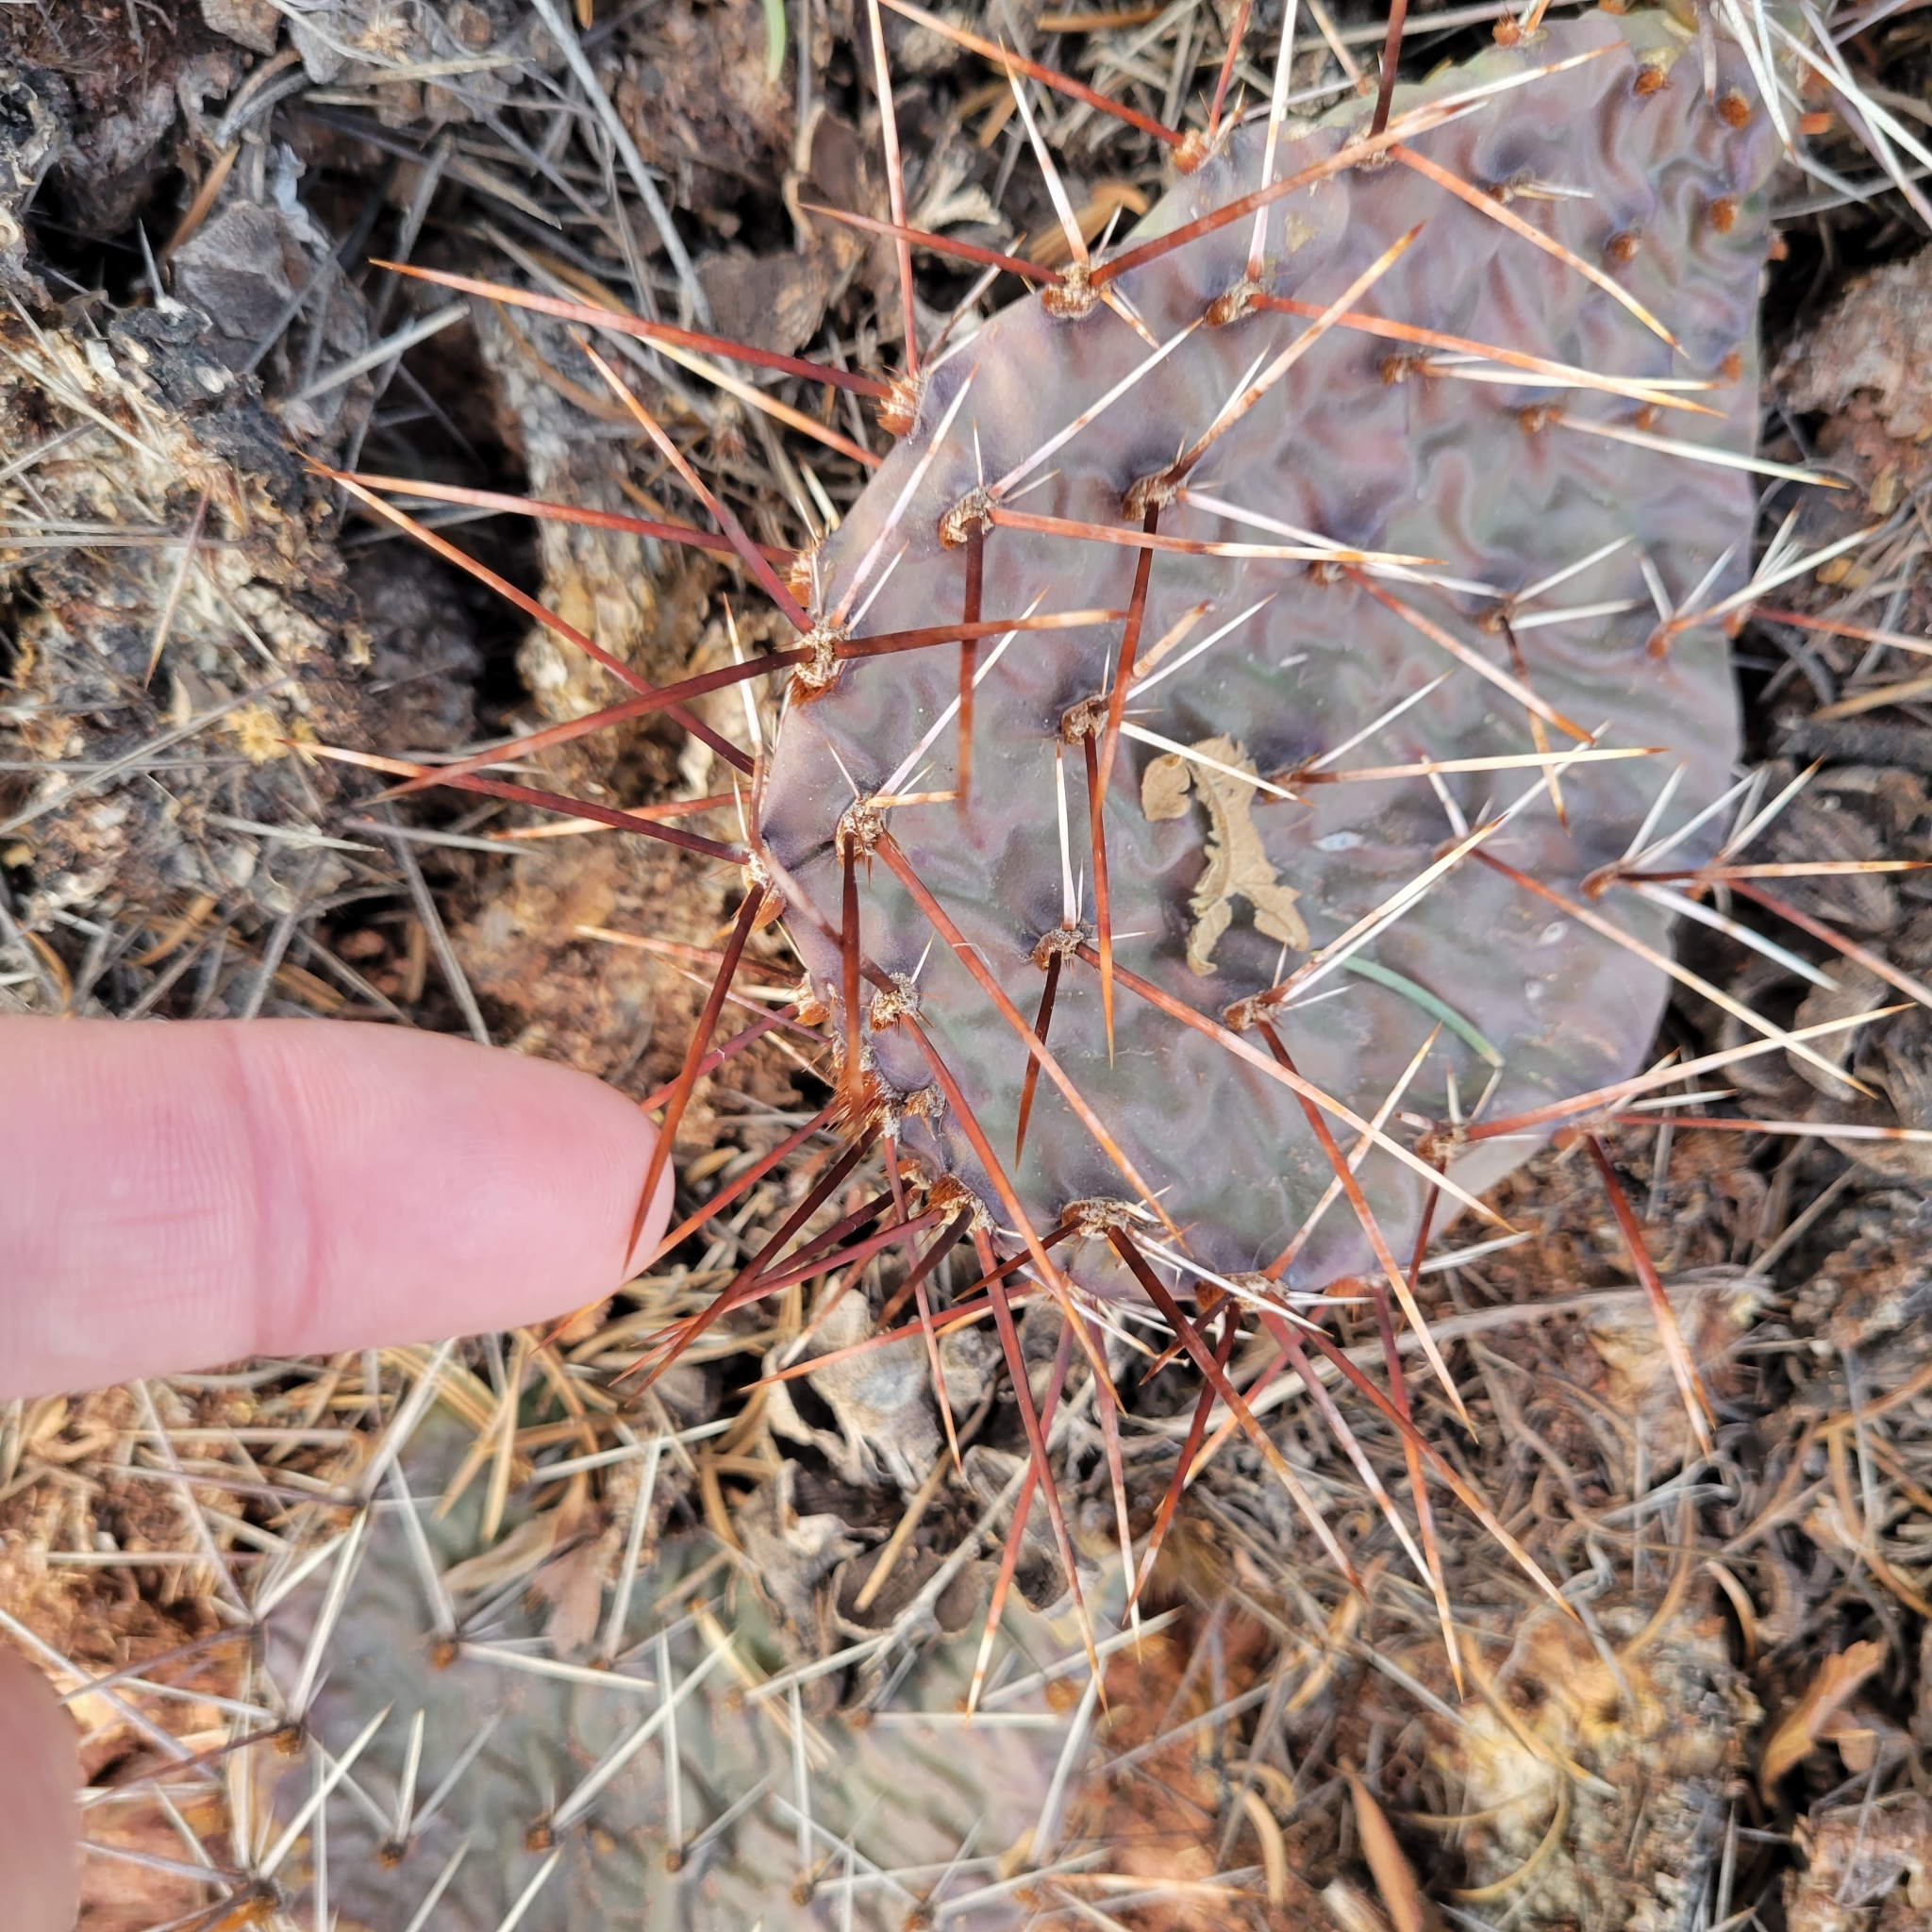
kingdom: Plantae
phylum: Tracheophyta
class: Magnoliopsida
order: Caryophyllales
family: Cactaceae
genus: Opuntia
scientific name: Opuntia polyacantha
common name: Plains prickly-pear
